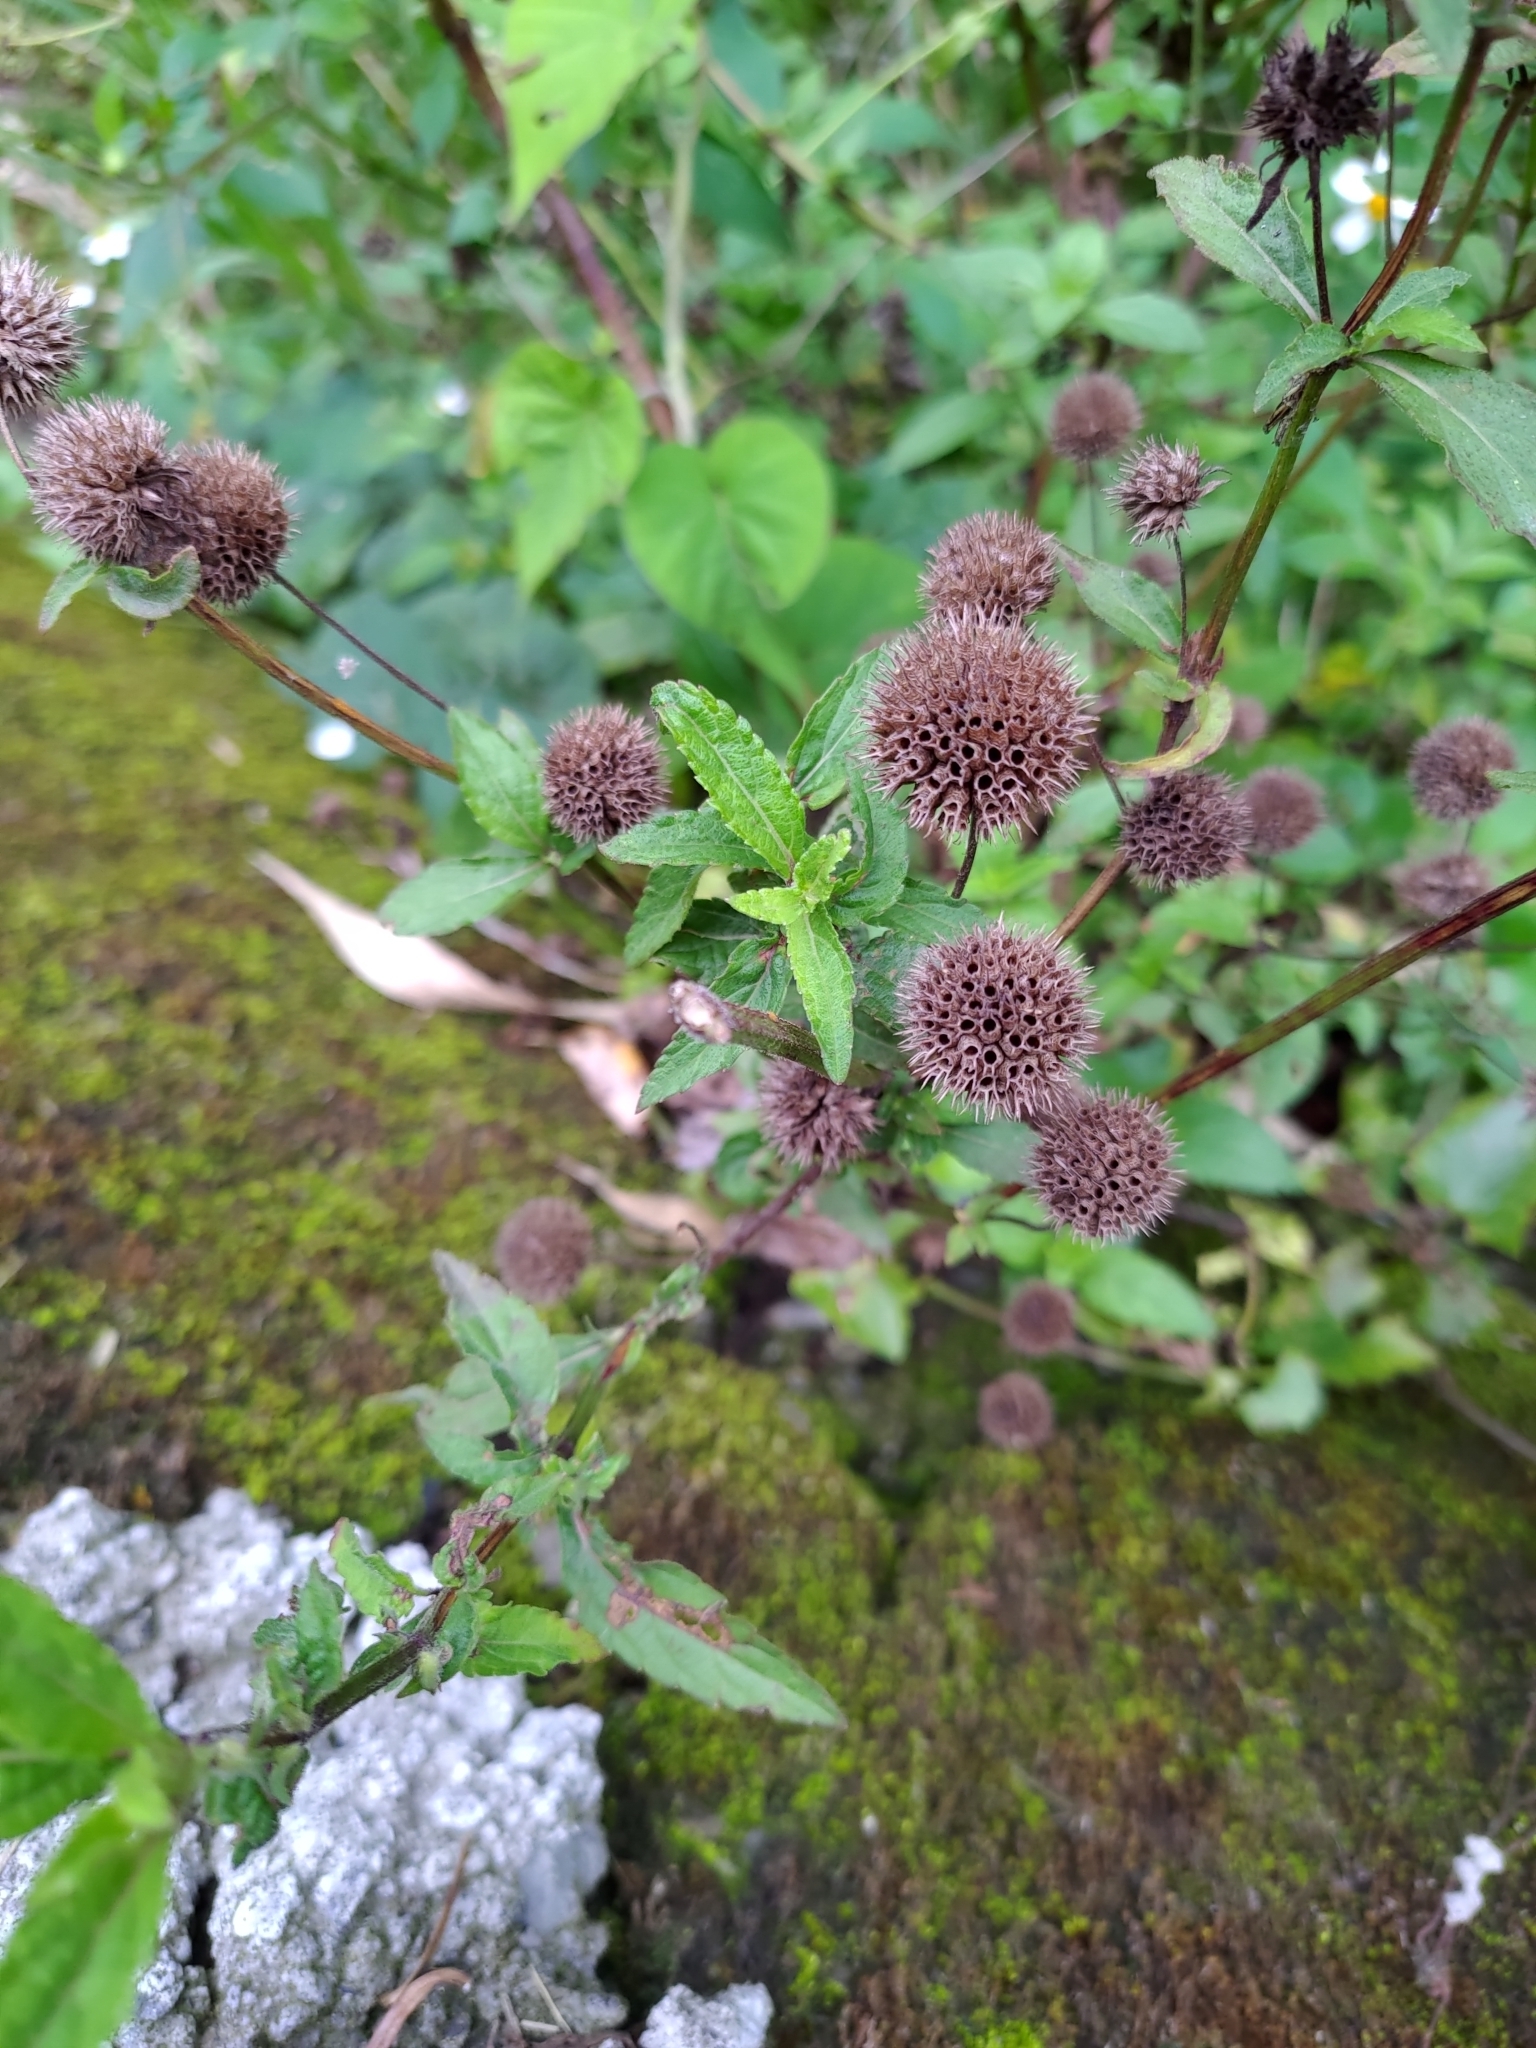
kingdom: Plantae
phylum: Tracheophyta
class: Magnoliopsida
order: Lamiales
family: Lamiaceae
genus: Hyptis
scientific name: Hyptis capitata
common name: False ironwort
